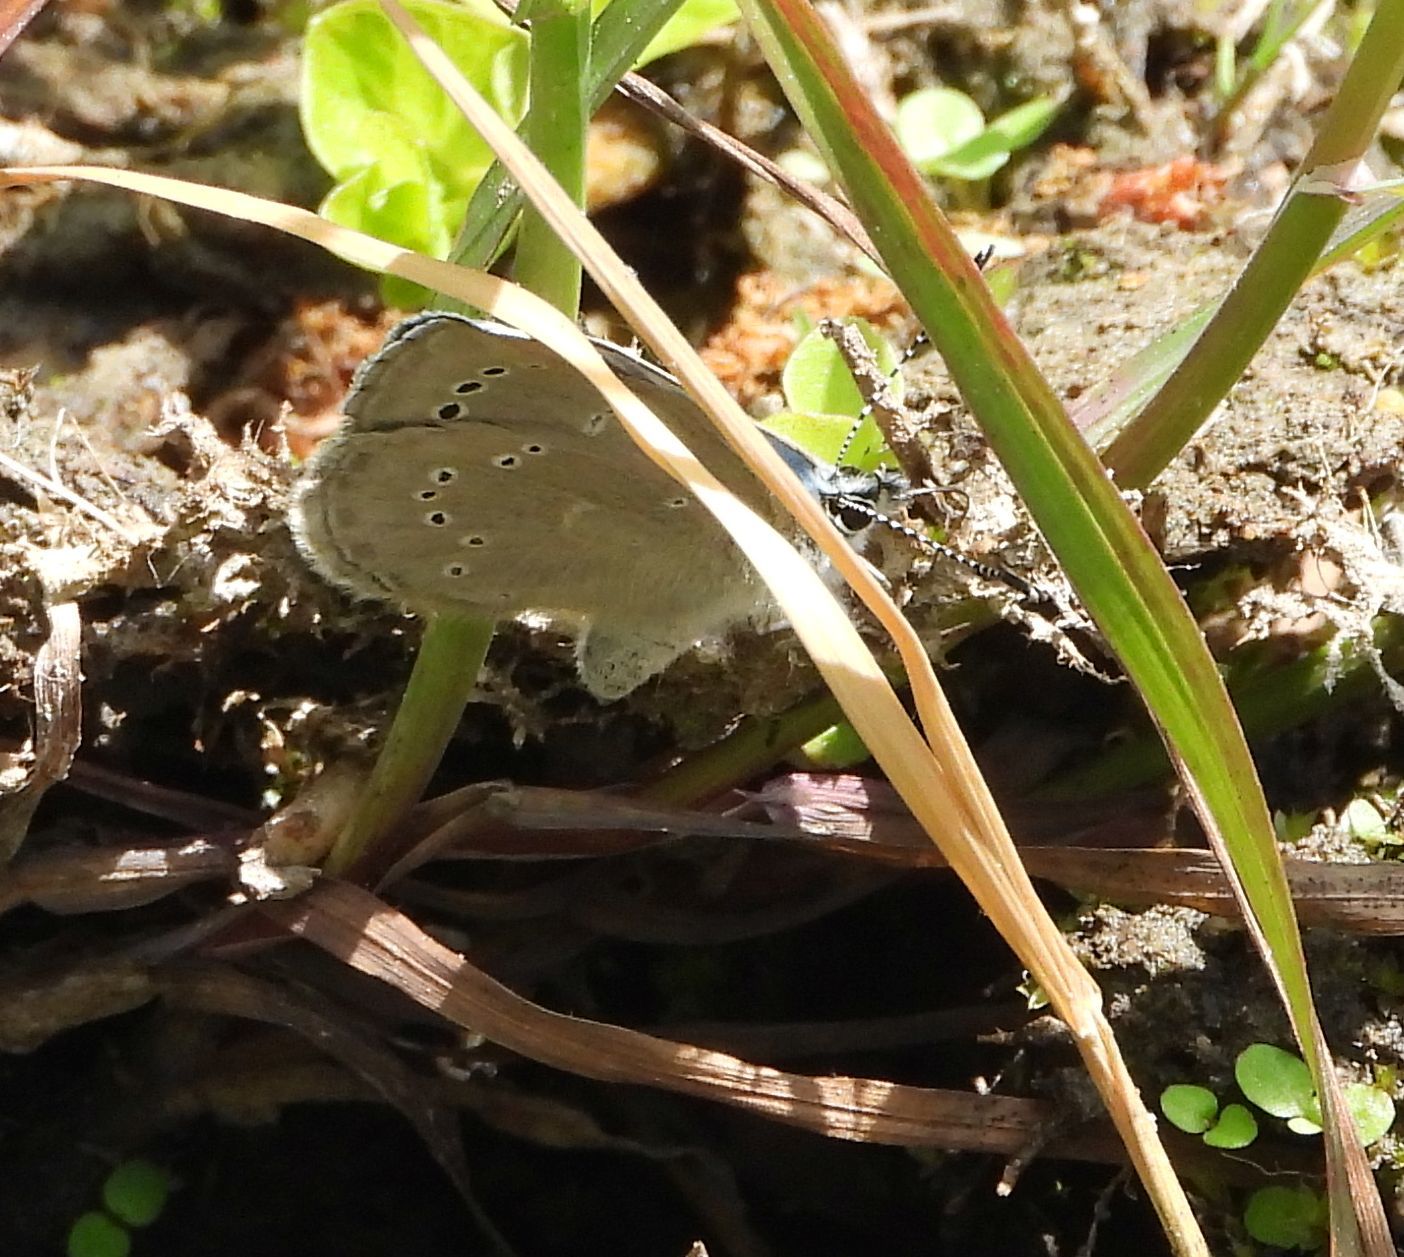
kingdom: Animalia
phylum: Arthropoda
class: Insecta
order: Lepidoptera
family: Lycaenidae
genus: Glaucopsyche
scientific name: Glaucopsyche lygdamus
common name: Silvery blue
